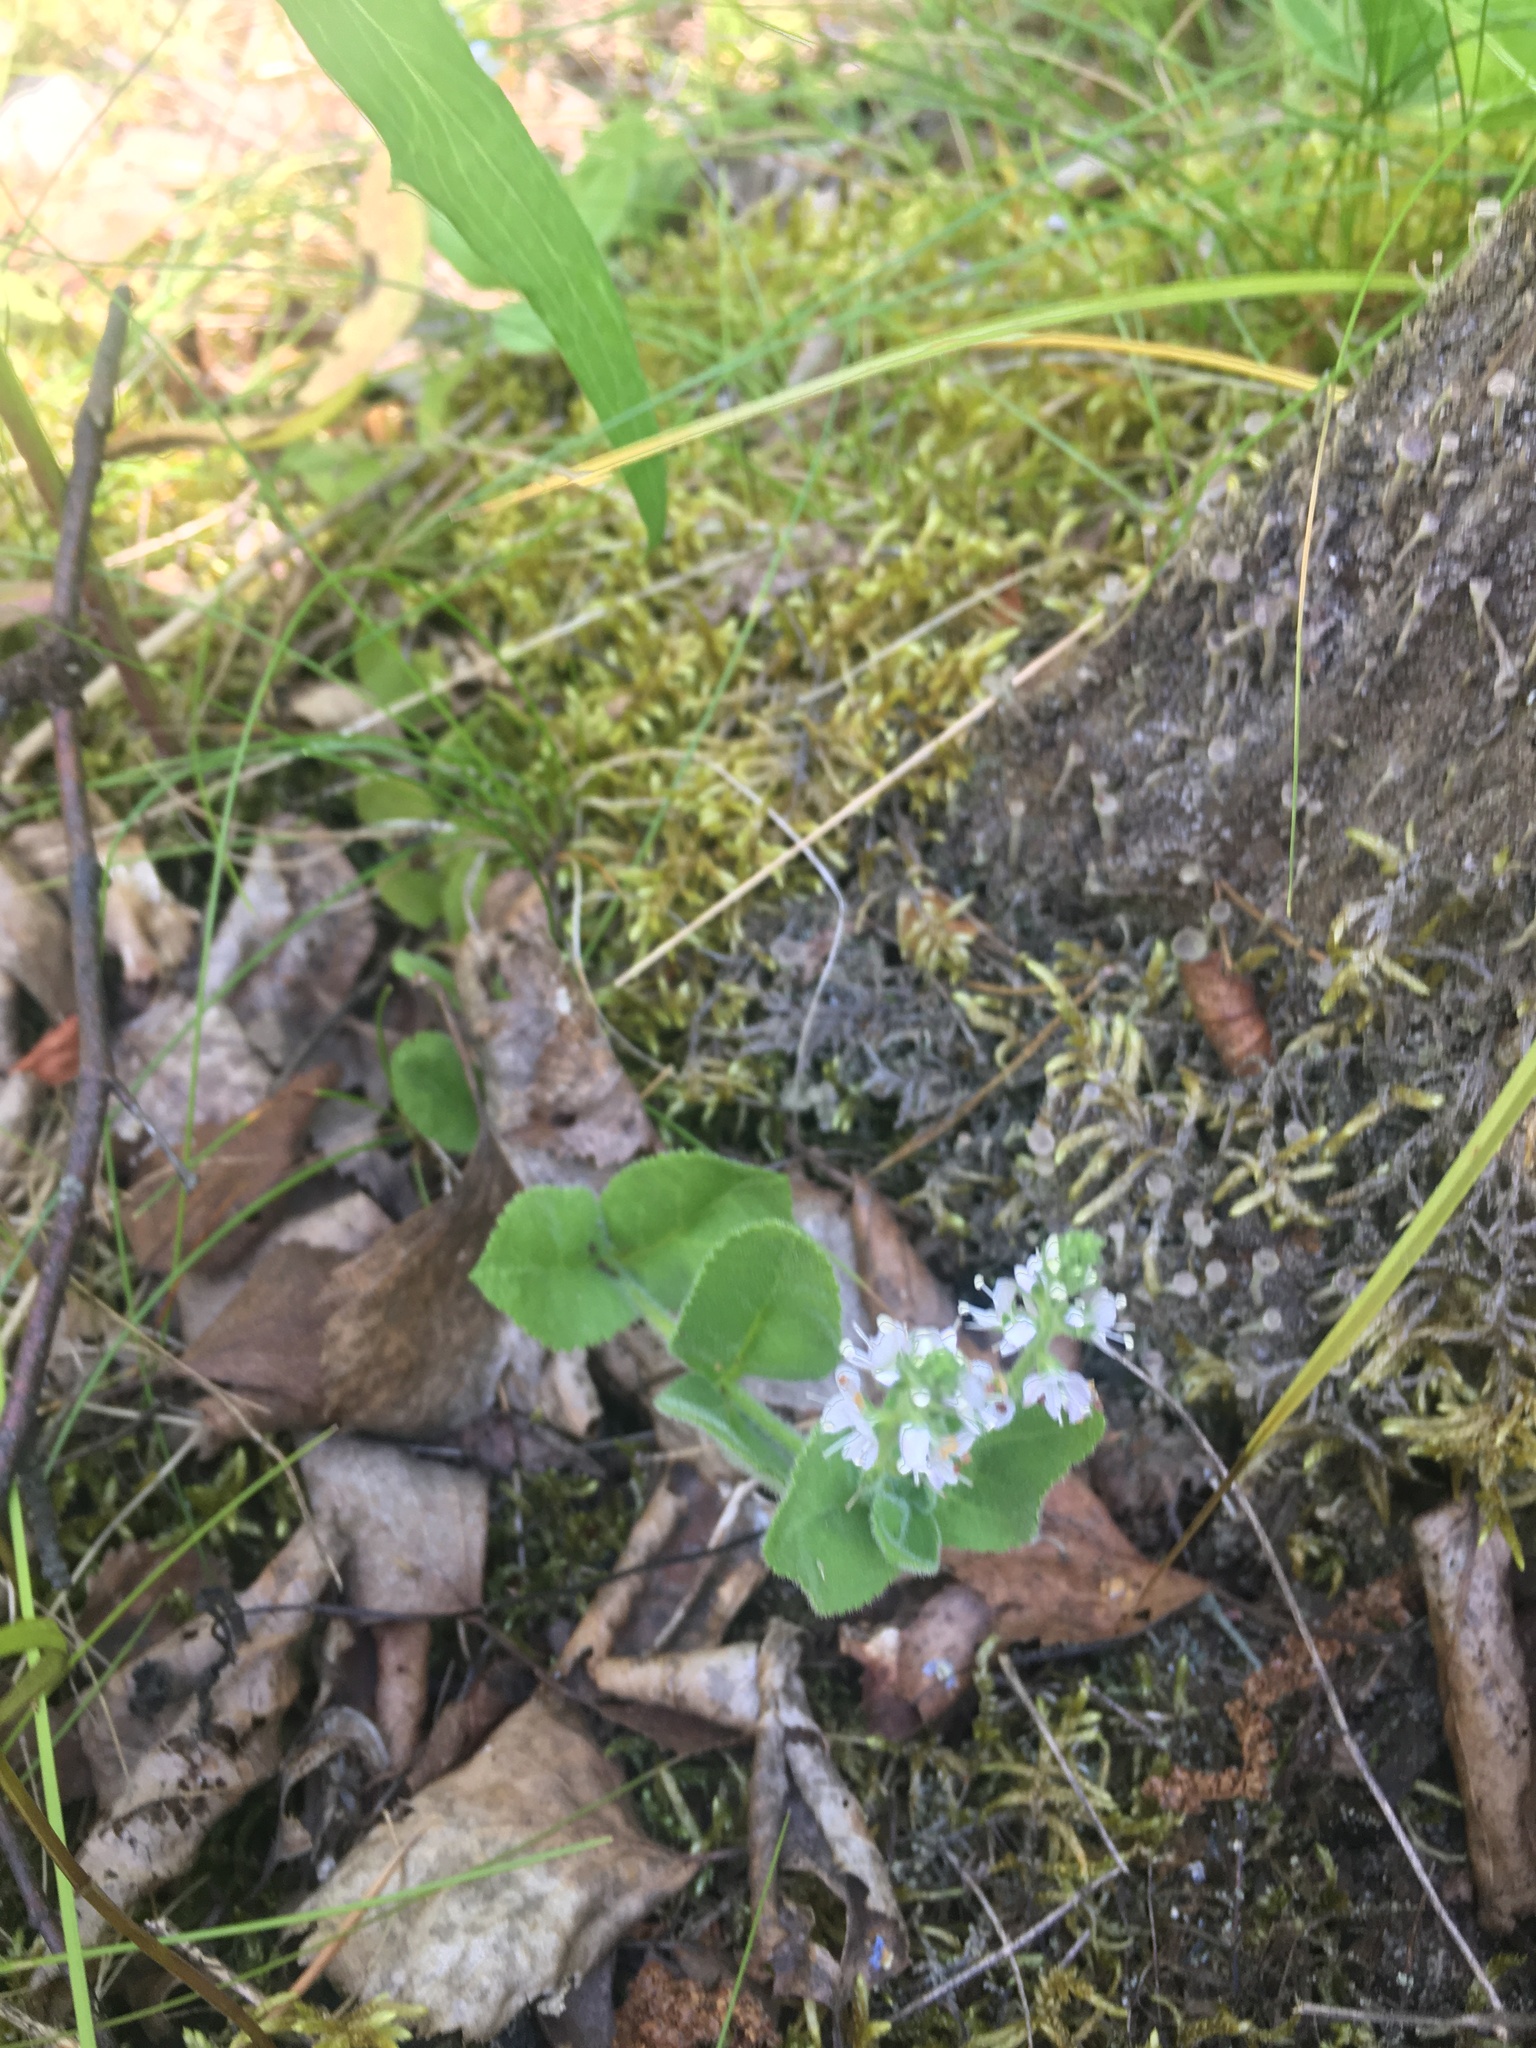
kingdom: Plantae
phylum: Tracheophyta
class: Magnoliopsida
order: Lamiales
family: Plantaginaceae
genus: Veronica
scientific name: Veronica officinalis
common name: Common speedwell
